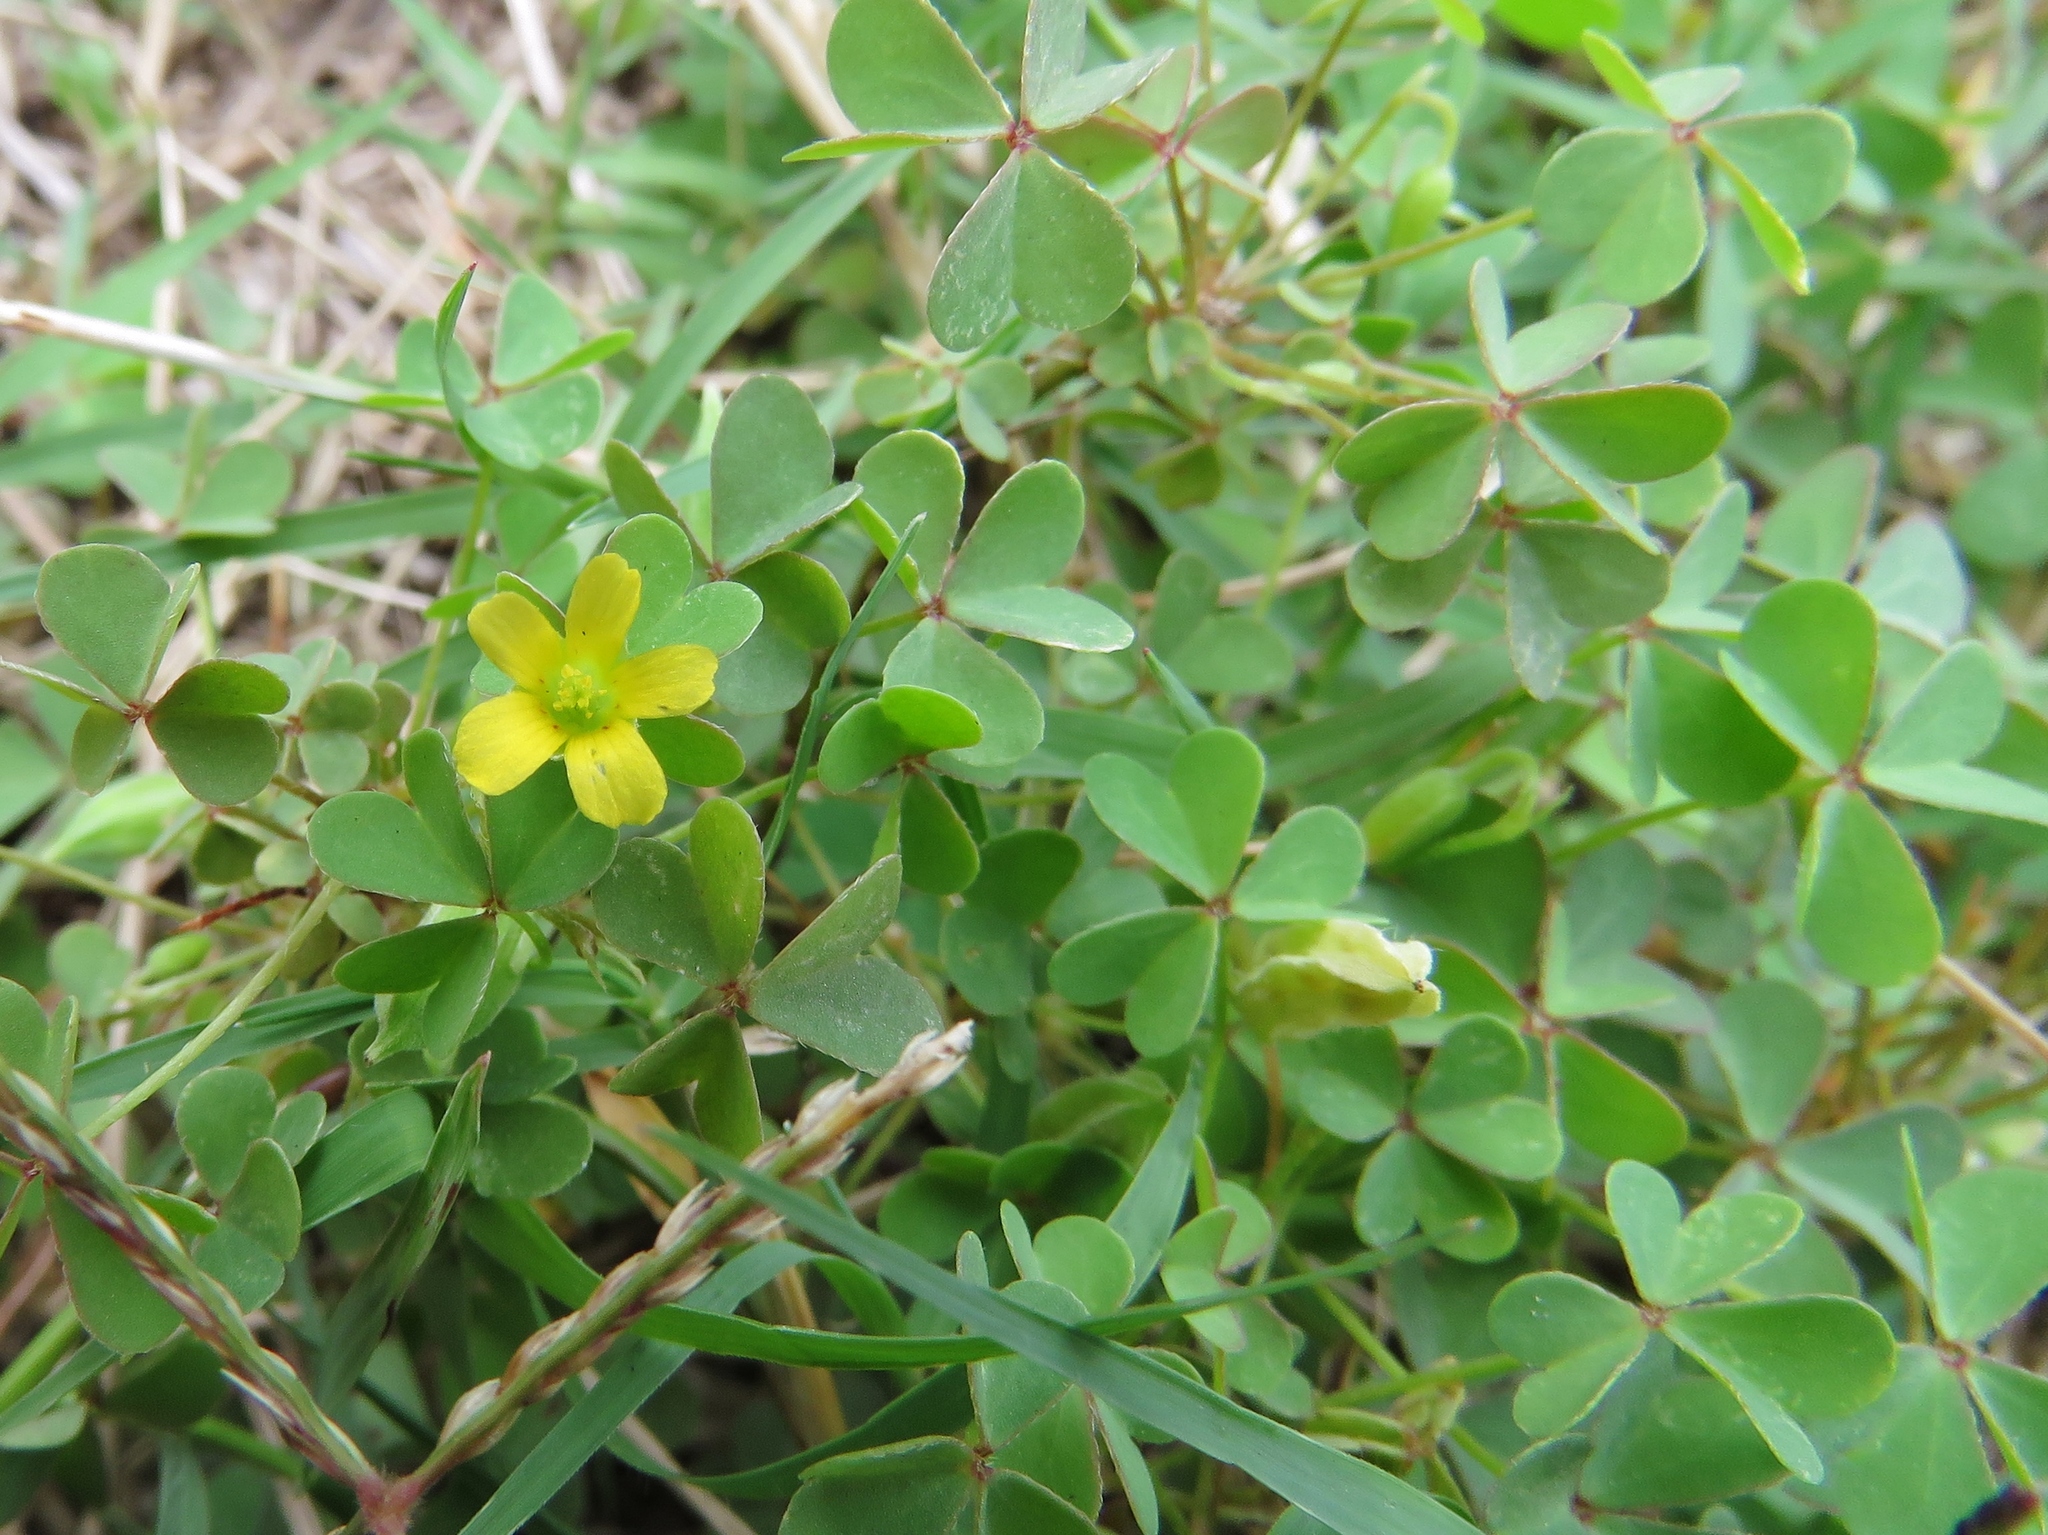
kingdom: Plantae
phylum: Tracheophyta
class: Magnoliopsida
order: Oxalidales
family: Oxalidaceae
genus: Oxalis
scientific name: Oxalis corniculata
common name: Procumbent yellow-sorrel
